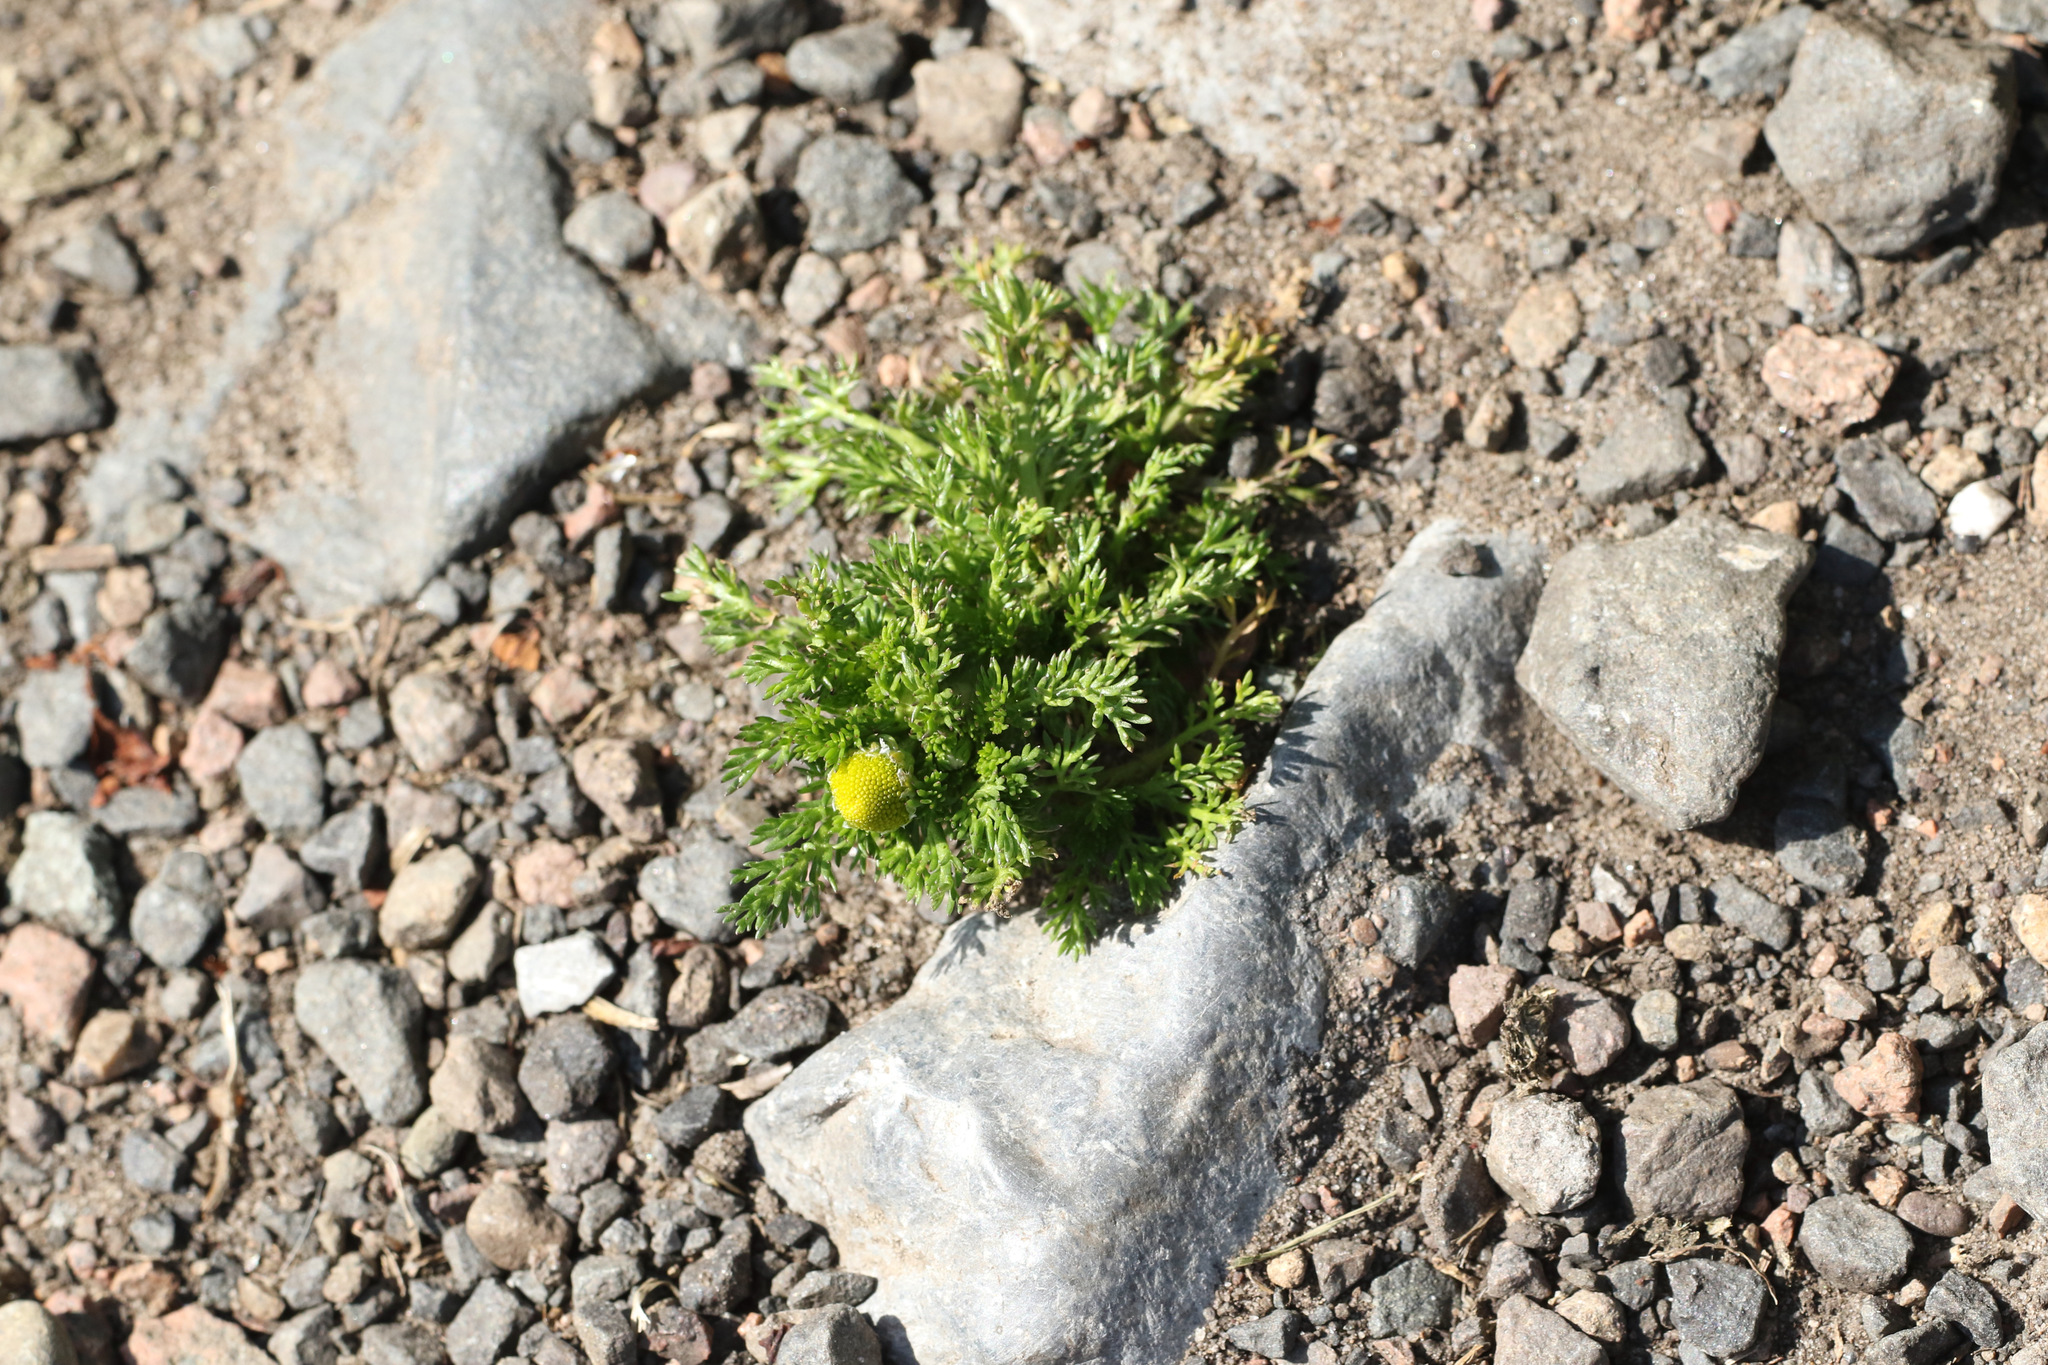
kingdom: Plantae
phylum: Tracheophyta
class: Magnoliopsida
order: Asterales
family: Asteraceae
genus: Matricaria
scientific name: Matricaria discoidea
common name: Disc mayweed
